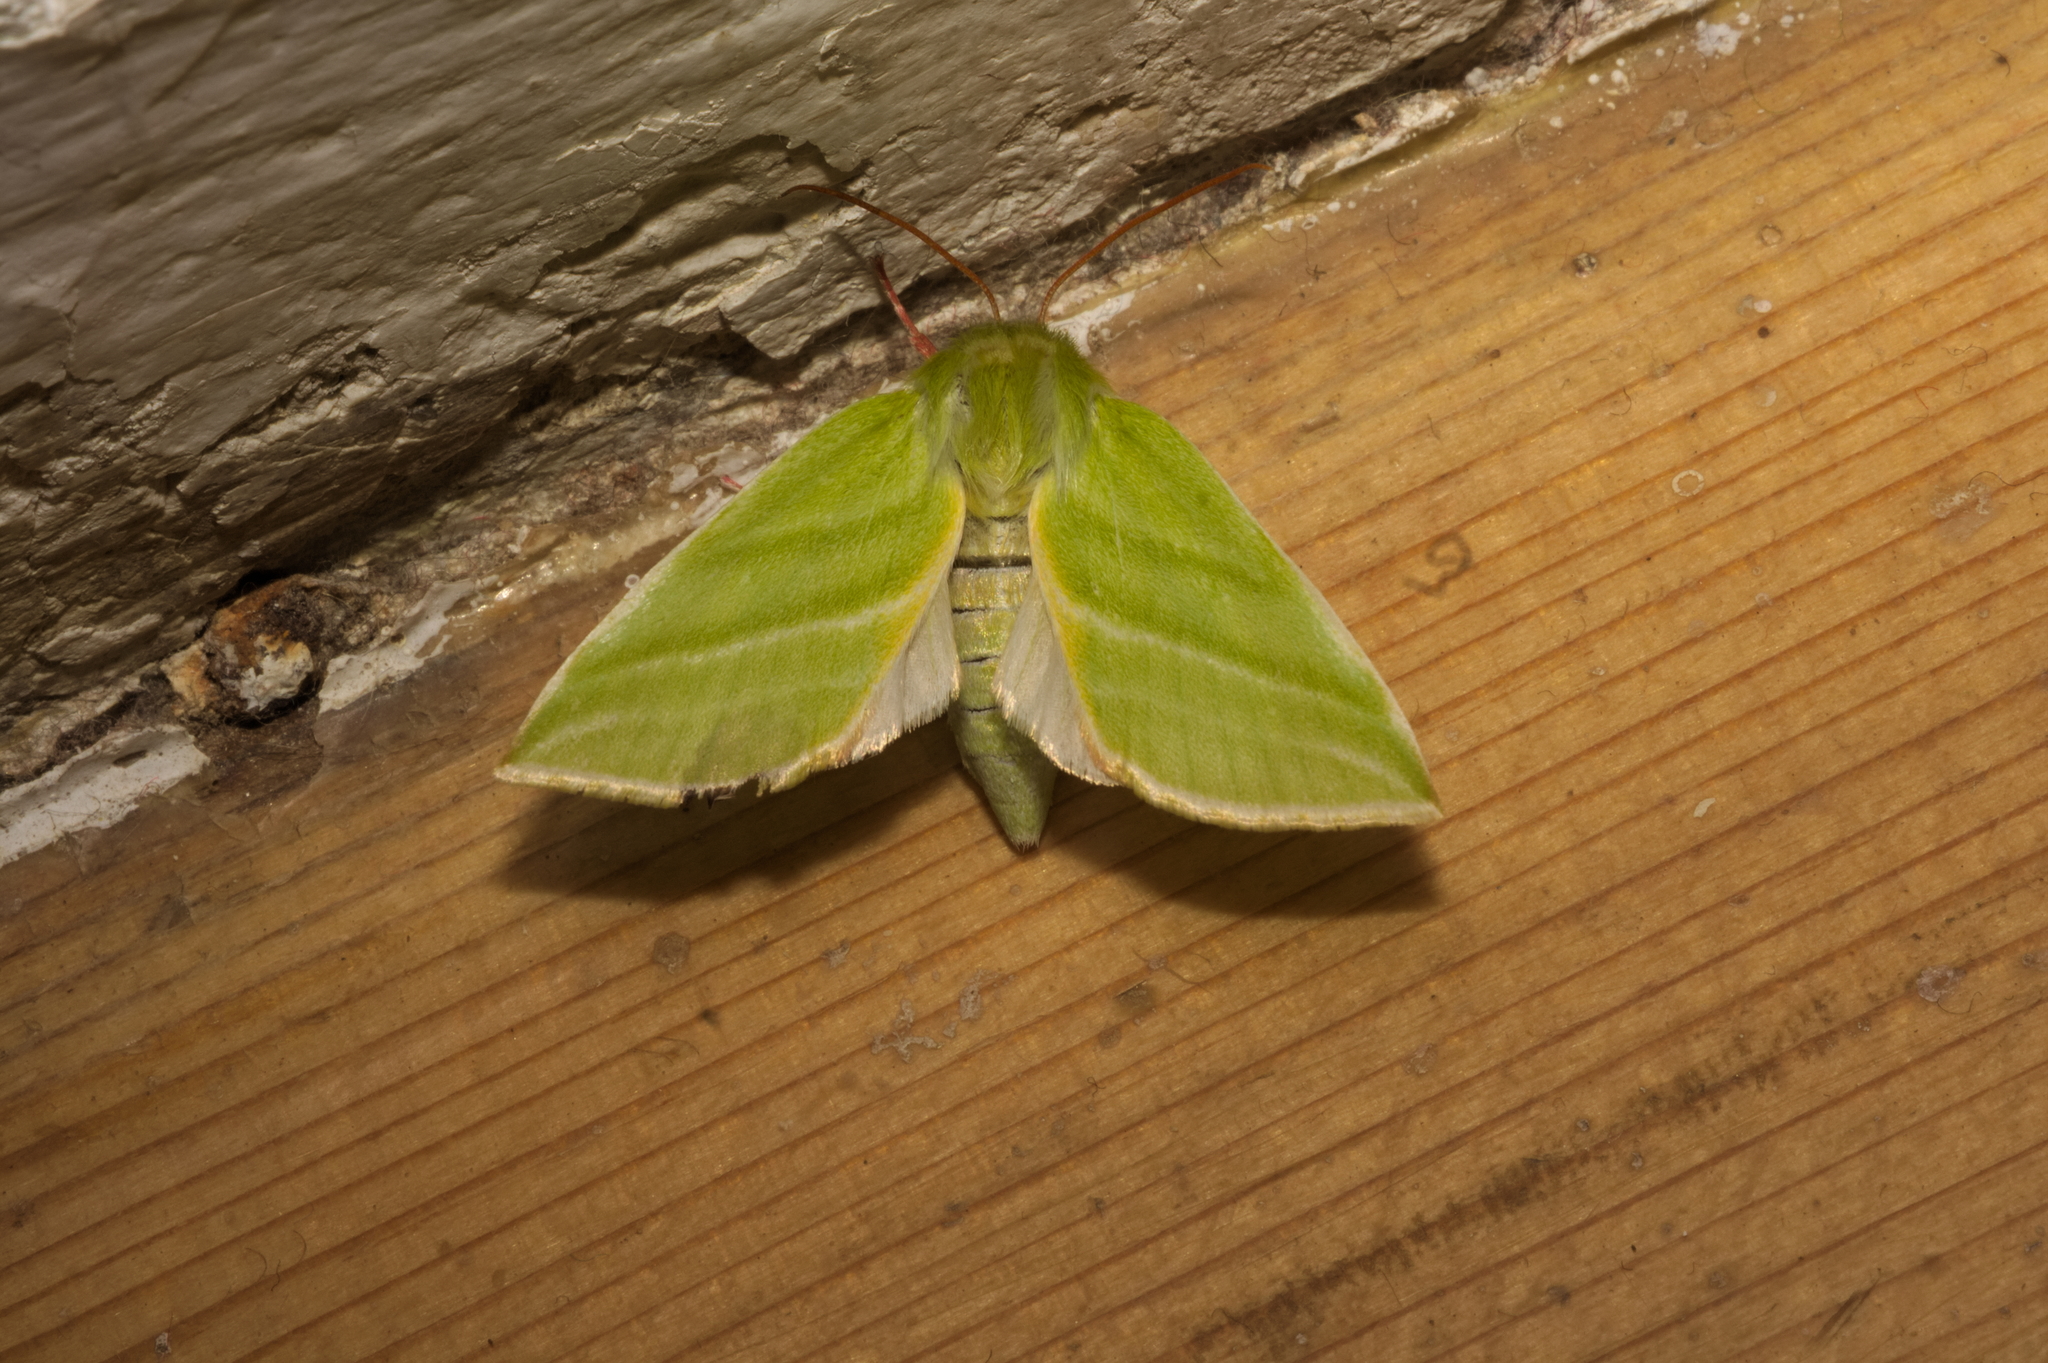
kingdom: Animalia
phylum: Arthropoda
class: Insecta
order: Lepidoptera
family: Nolidae
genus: Pseudoips
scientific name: Pseudoips prasinana
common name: Green silver-lines
